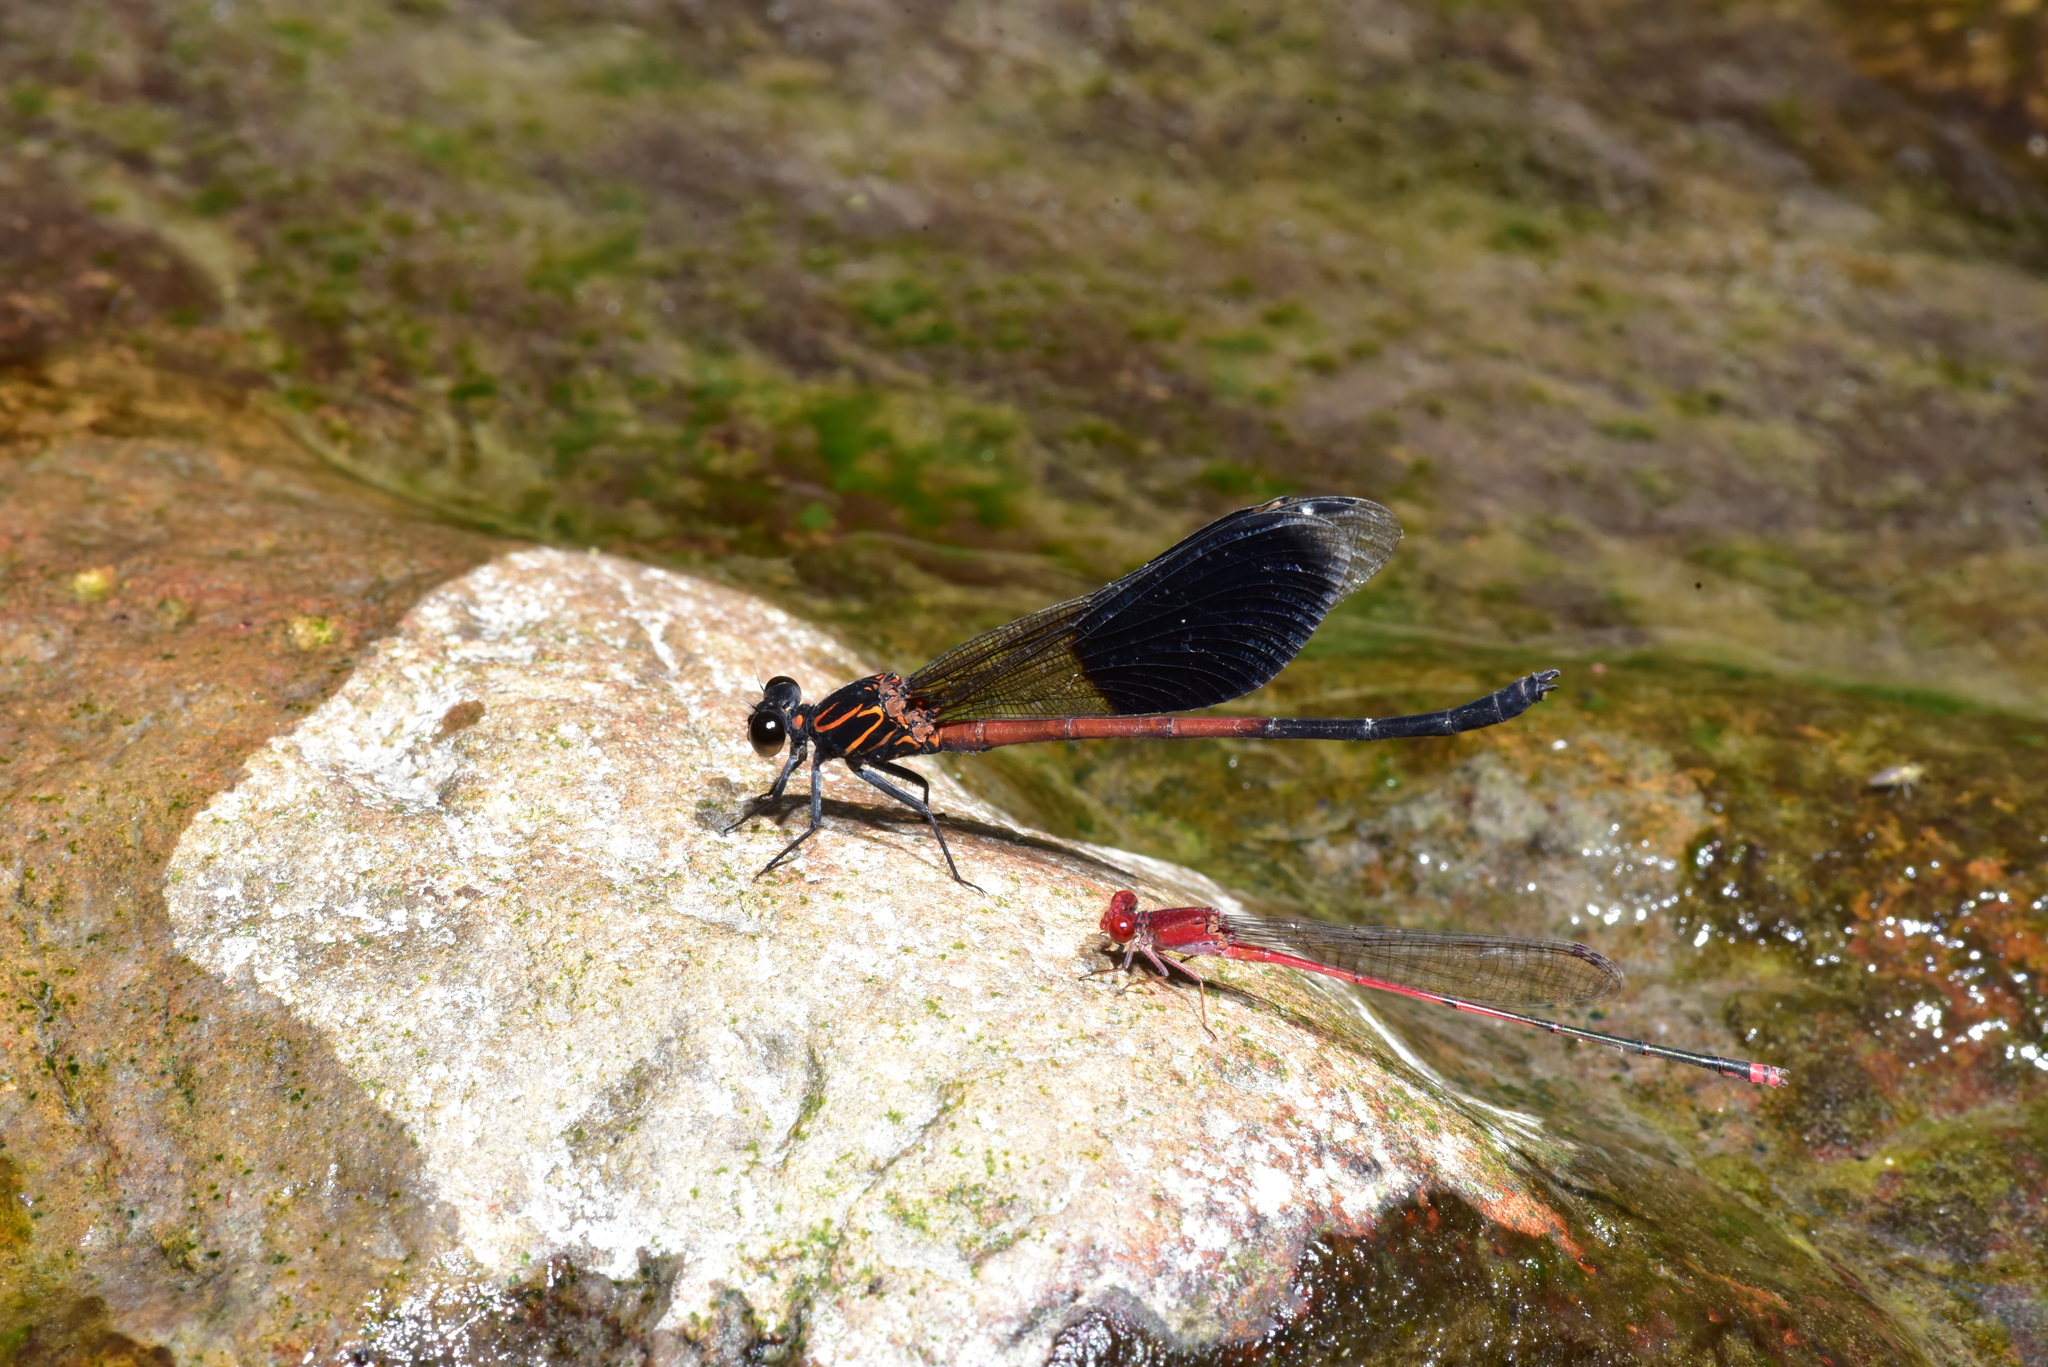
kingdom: Animalia
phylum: Arthropoda
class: Insecta
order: Odonata
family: Euphaeidae
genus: Euphaea
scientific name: Euphaea formosa
